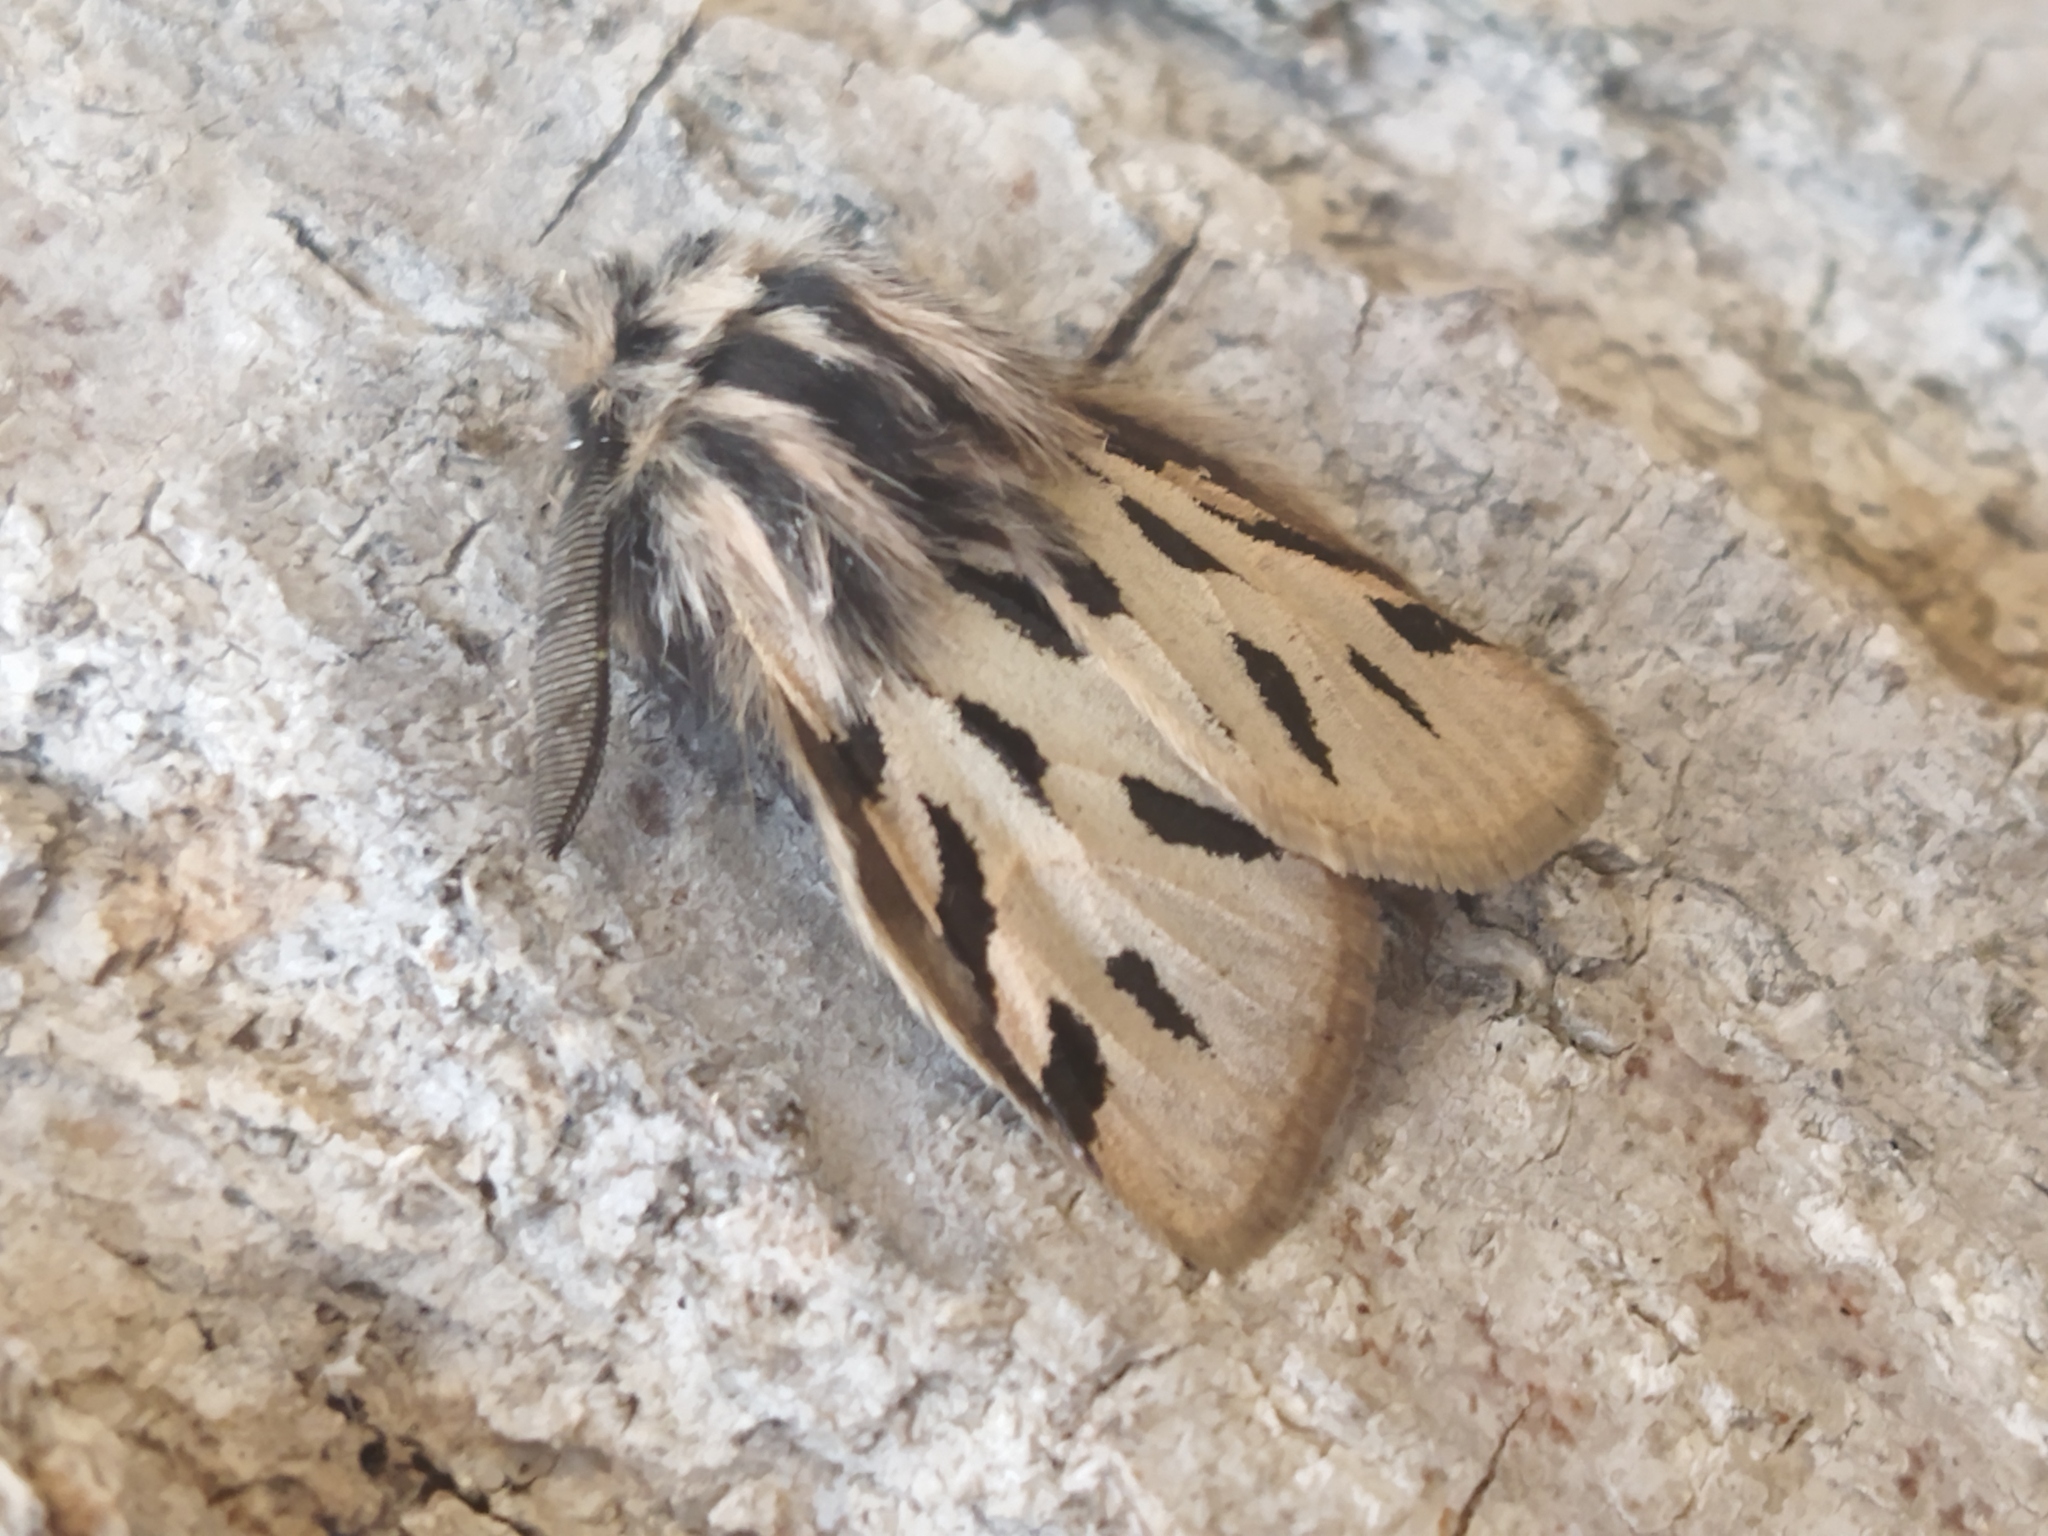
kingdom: Animalia
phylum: Arthropoda
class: Insecta
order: Lepidoptera
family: Erebidae
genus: Ocnogyna
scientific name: Ocnogyna parasita
